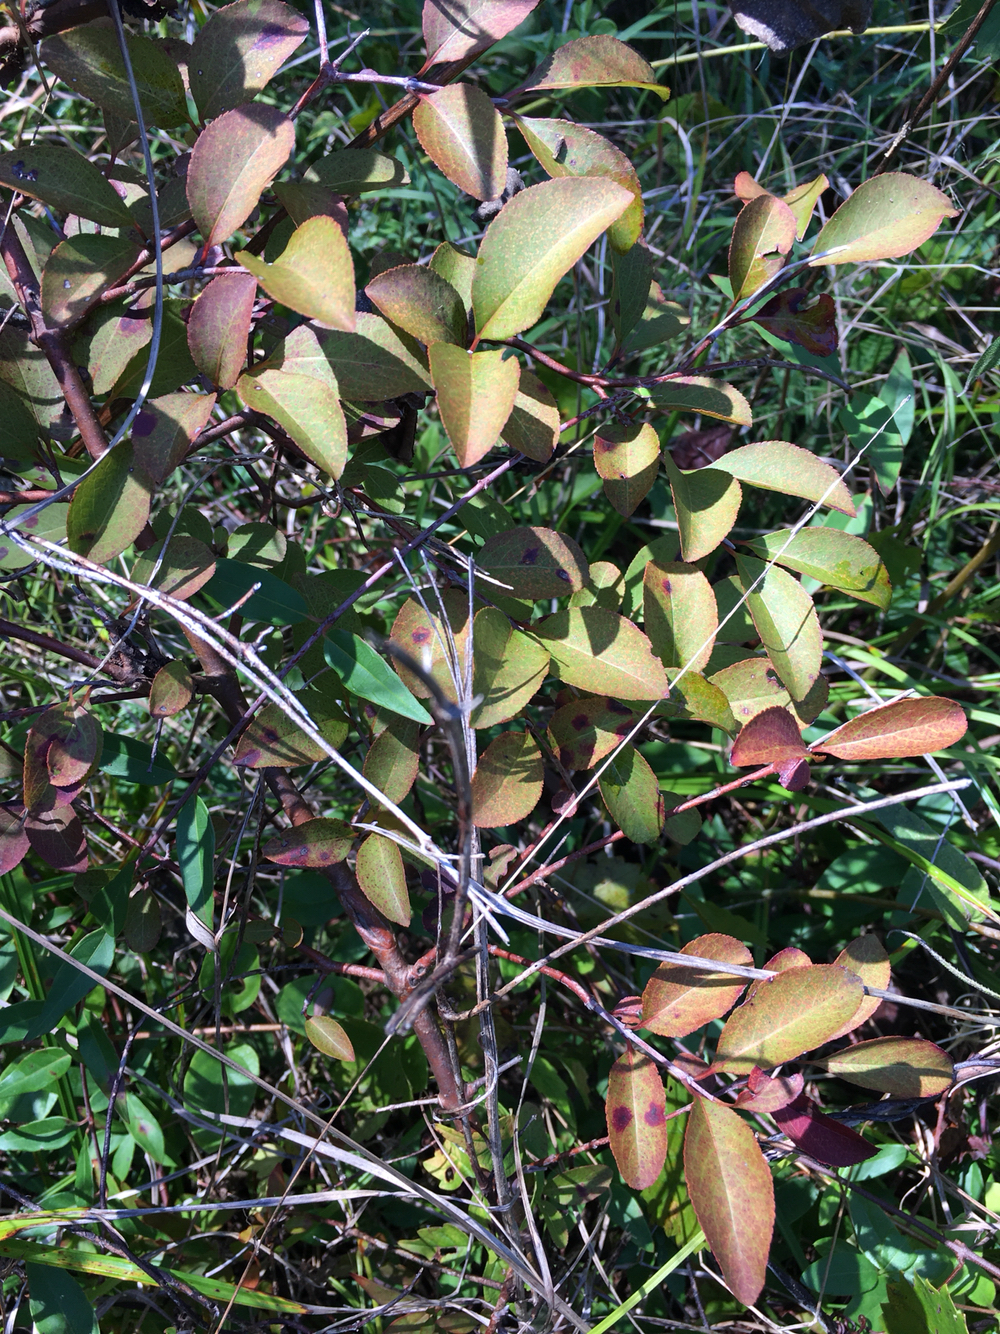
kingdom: Plantae
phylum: Tracheophyta
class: Magnoliopsida
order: Dipsacales
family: Viburnaceae
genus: Viburnum
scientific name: Viburnum prunifolium
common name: Black haw
